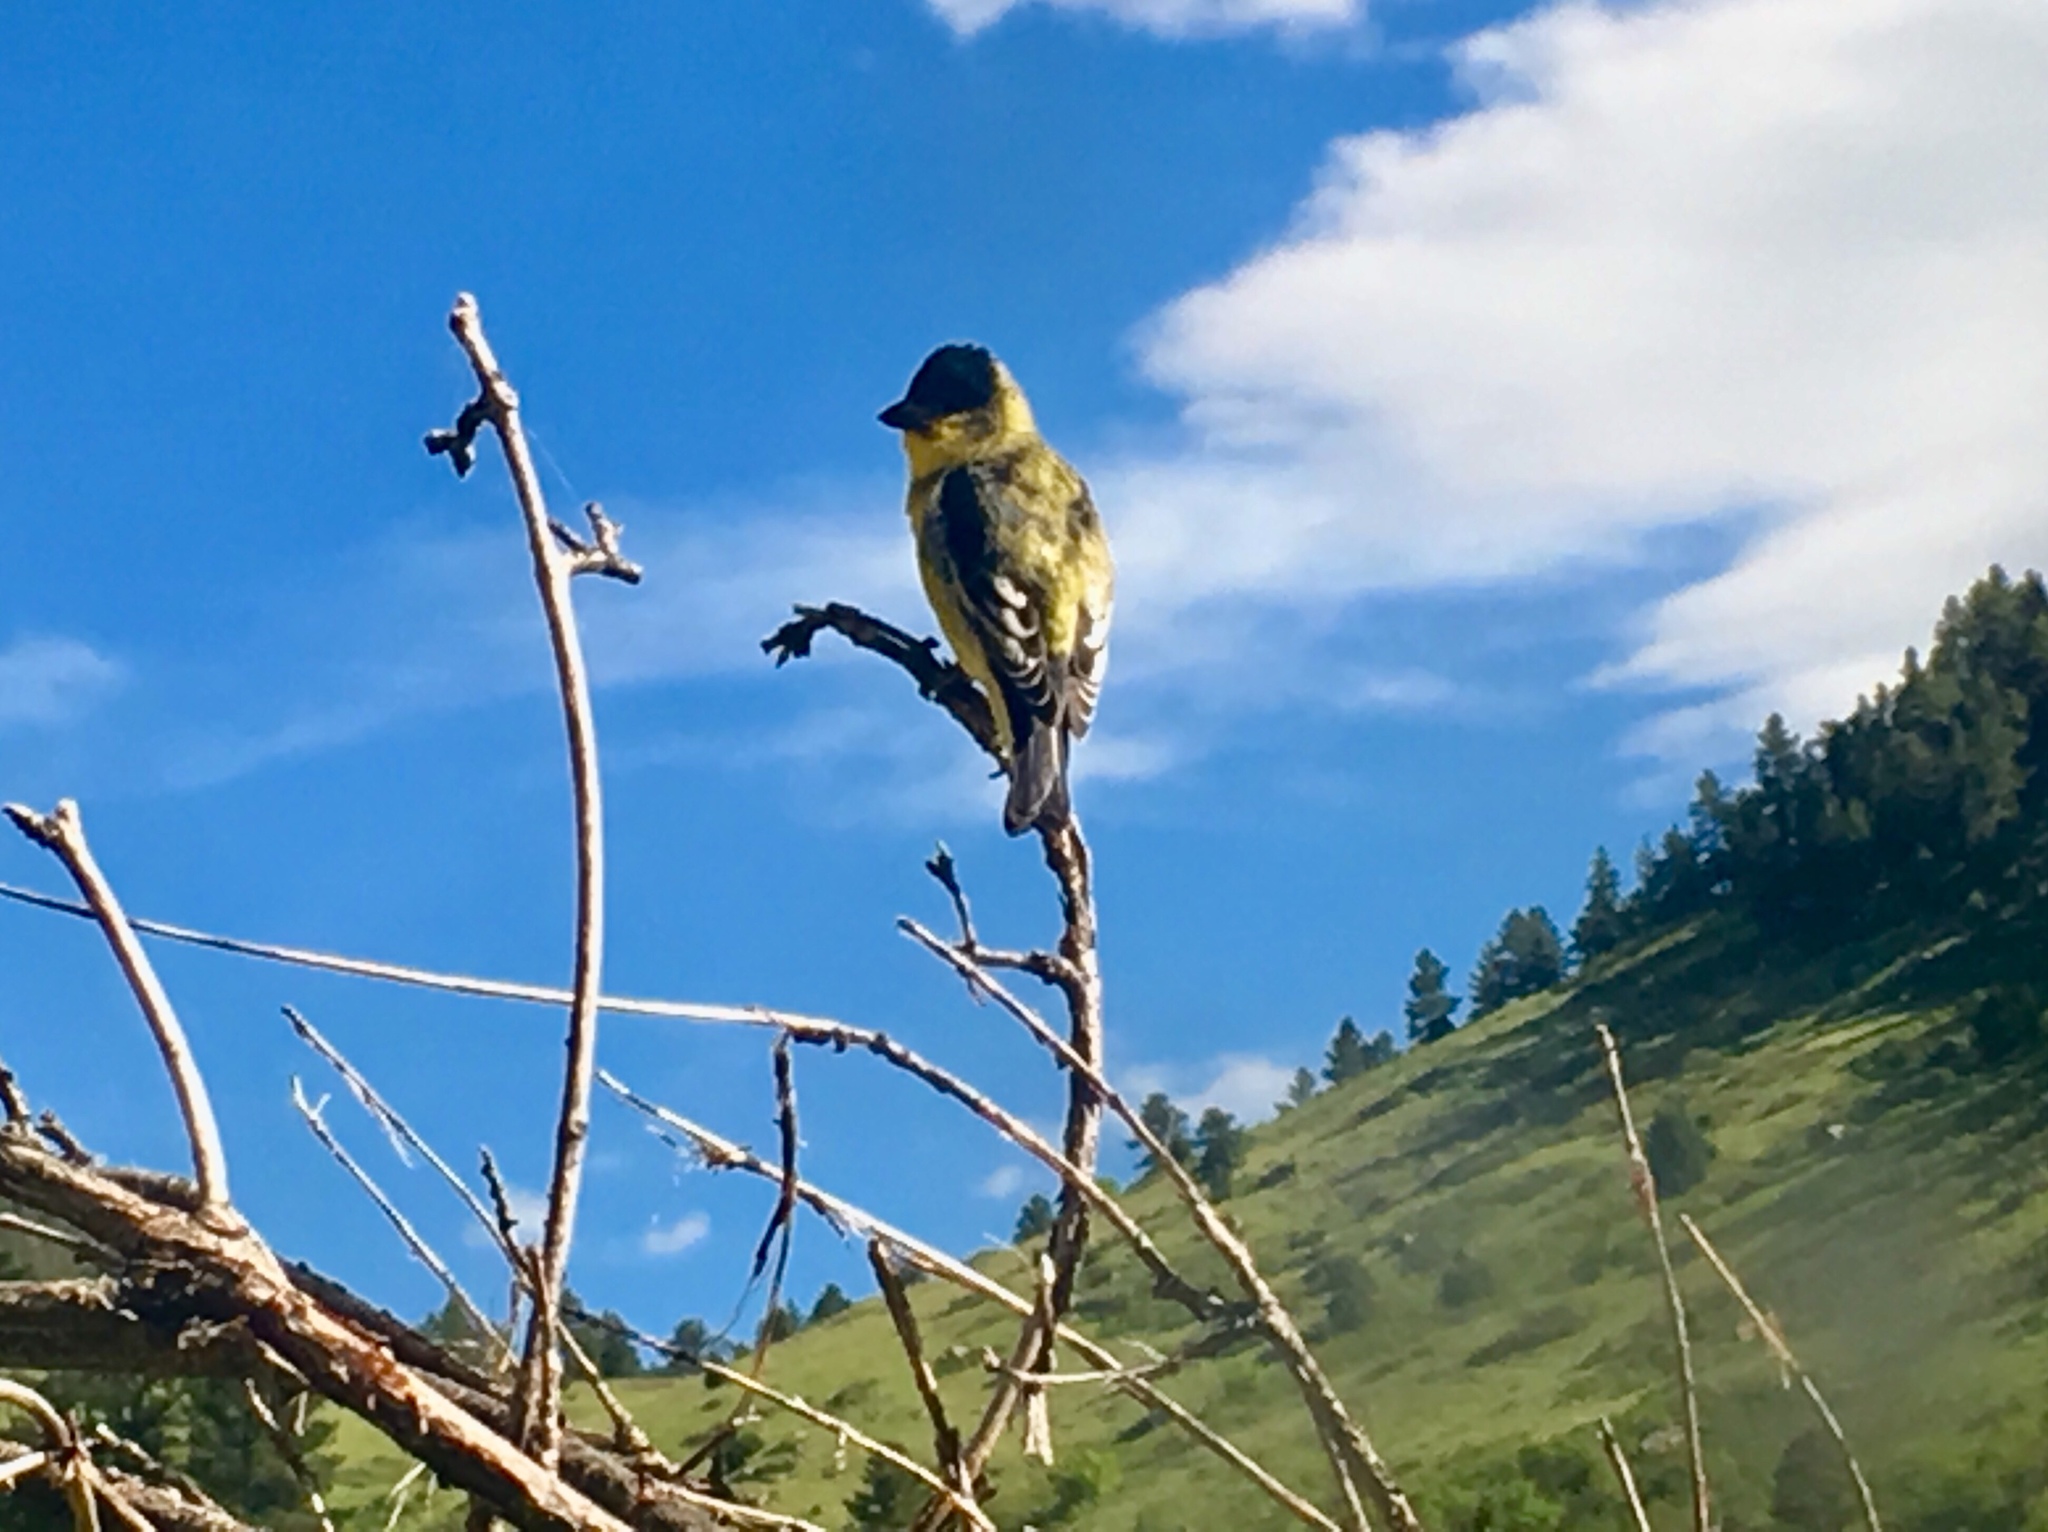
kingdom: Animalia
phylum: Chordata
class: Aves
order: Passeriformes
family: Fringillidae
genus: Spinus
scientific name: Spinus psaltria
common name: Lesser goldfinch
